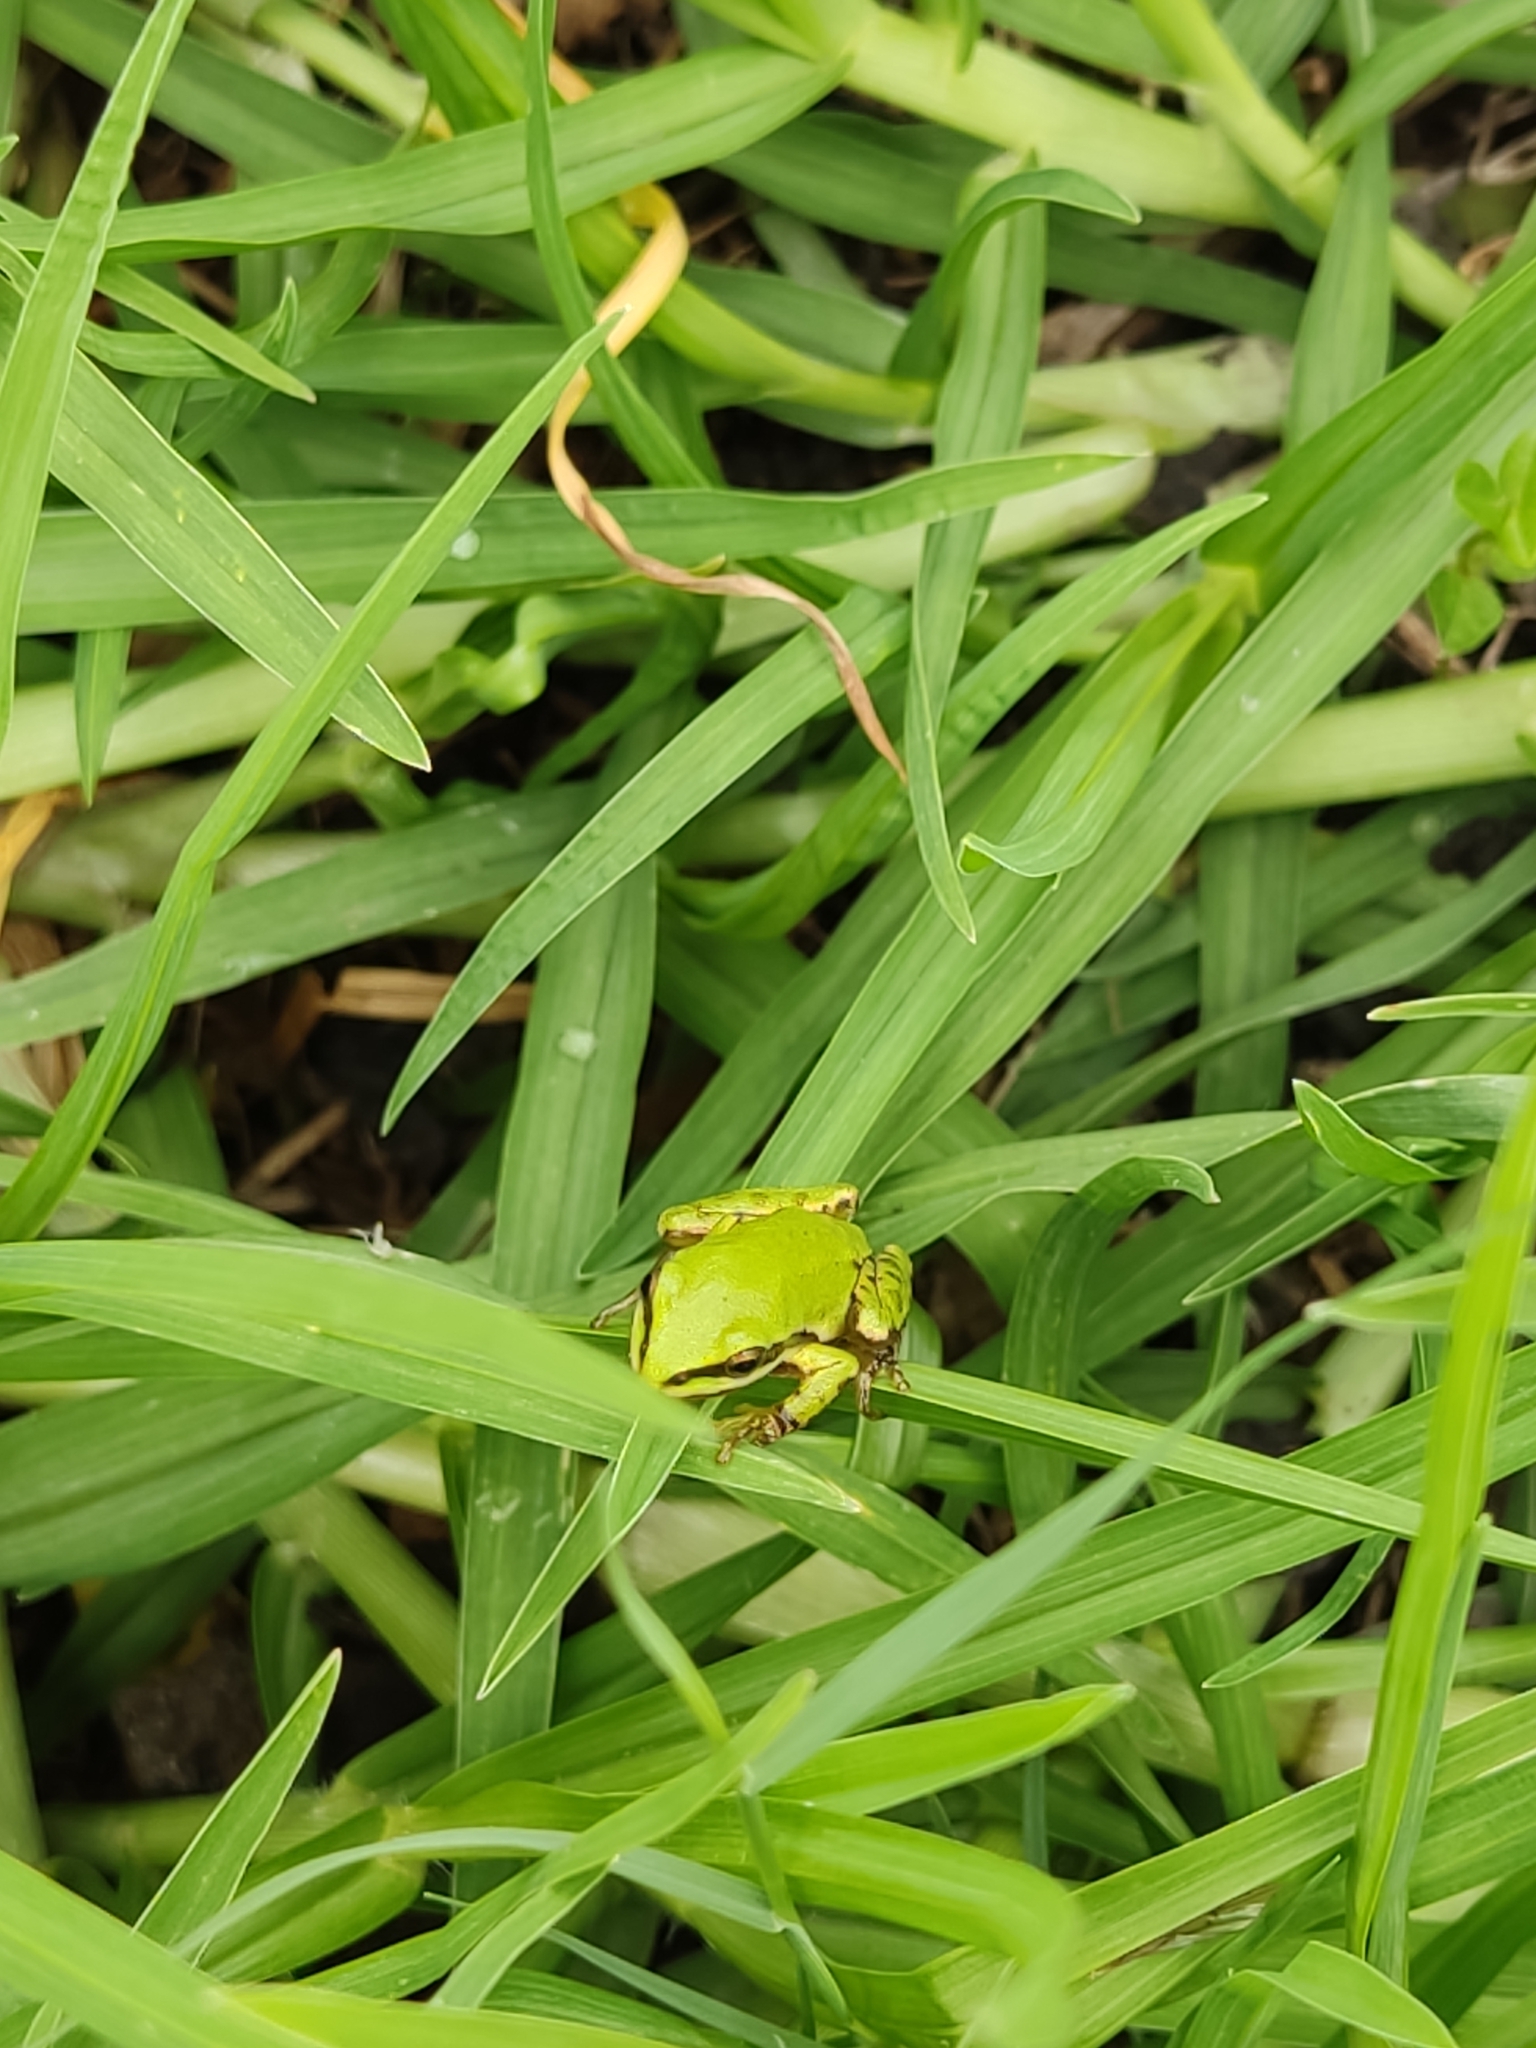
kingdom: Animalia
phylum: Chordata
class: Amphibia
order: Anura
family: Hylidae
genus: Dryophytes
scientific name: Dryophytes eximius
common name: Mountain treefrog
